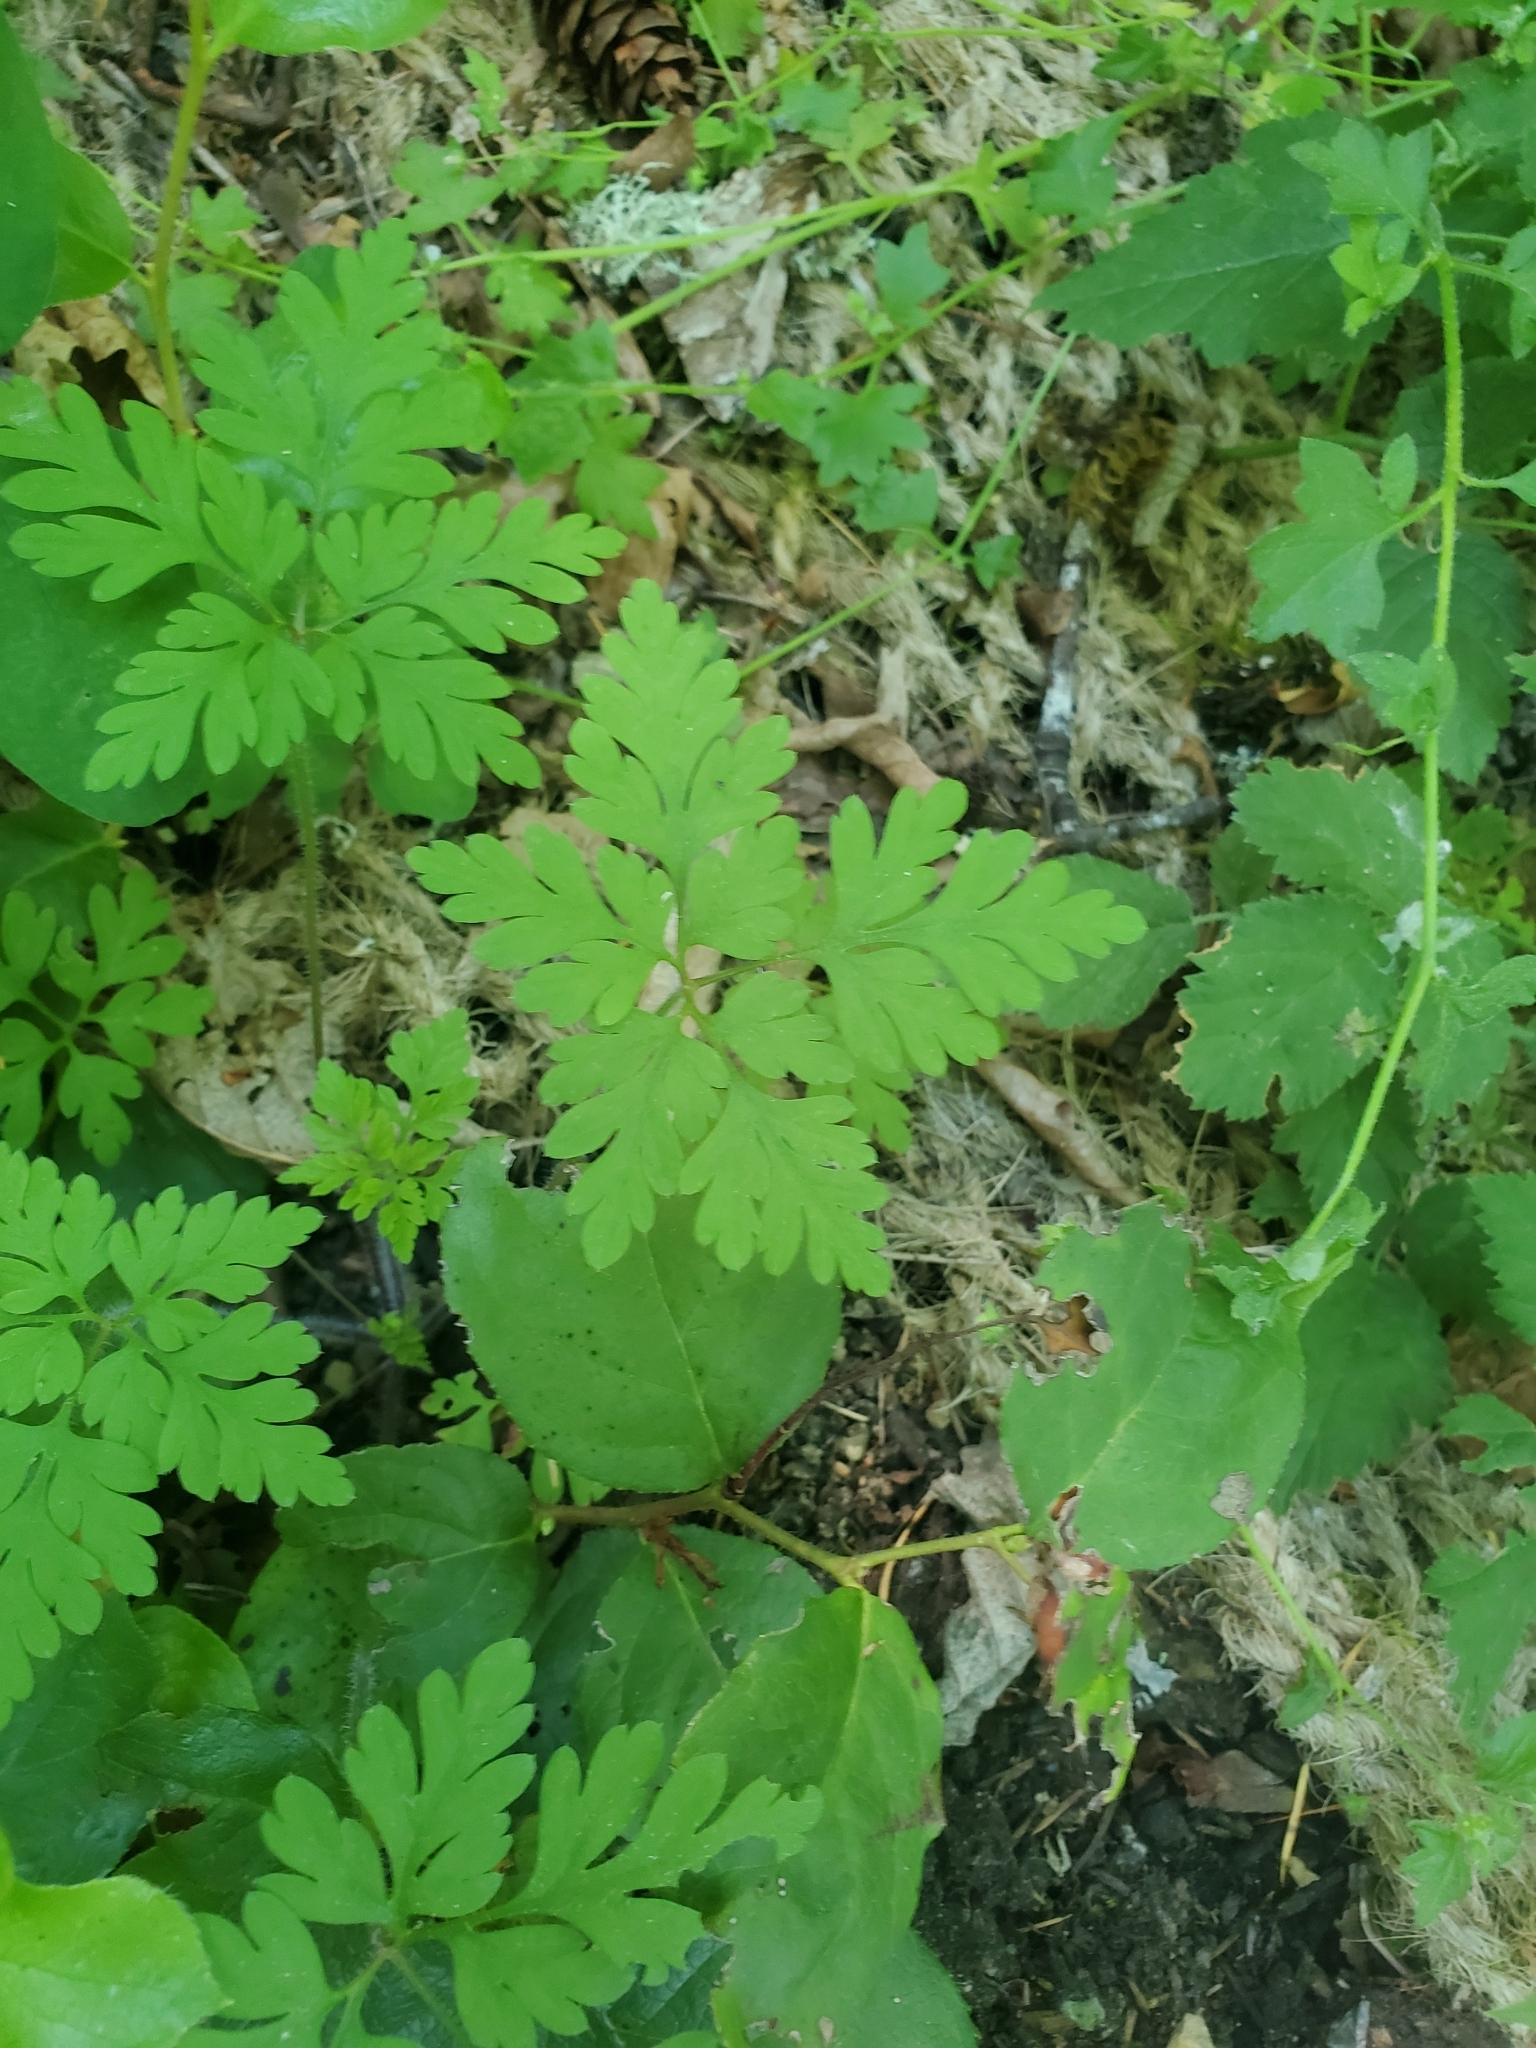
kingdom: Plantae
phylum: Tracheophyta
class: Magnoliopsida
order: Geraniales
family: Geraniaceae
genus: Geranium
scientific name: Geranium robertianum
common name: Herb-robert
